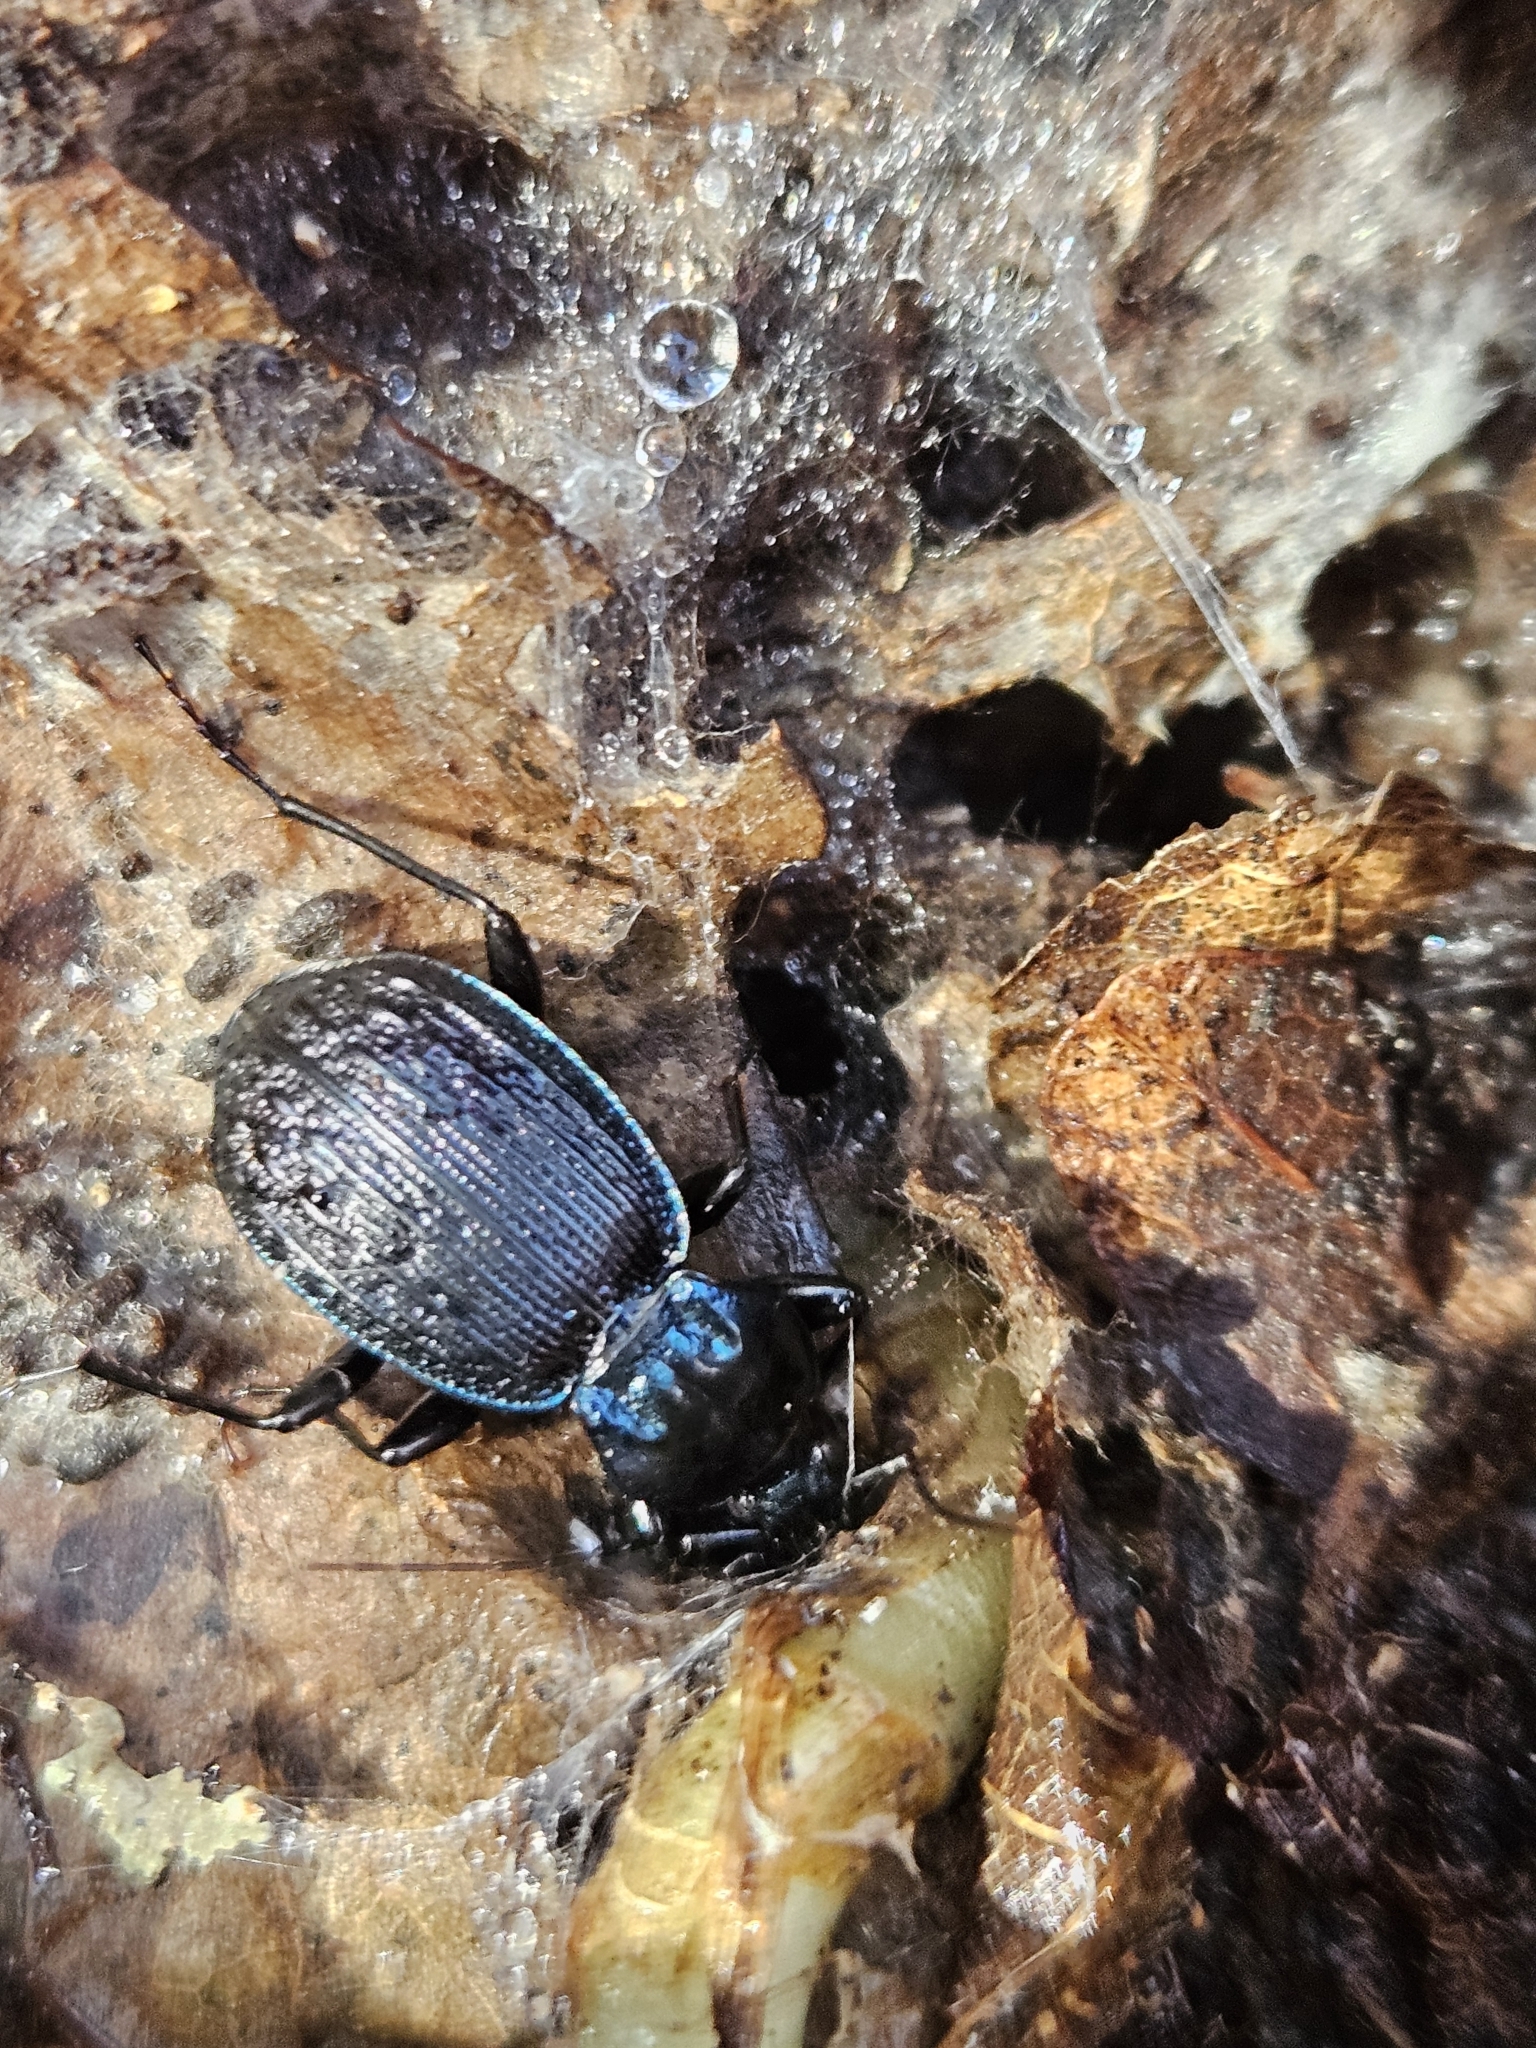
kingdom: Animalia
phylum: Arthropoda
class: Insecta
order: Coleoptera
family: Carabidae
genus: Sphaeroderus
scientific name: Sphaeroderus stenostomus
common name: Small snail-eating ground beetle
